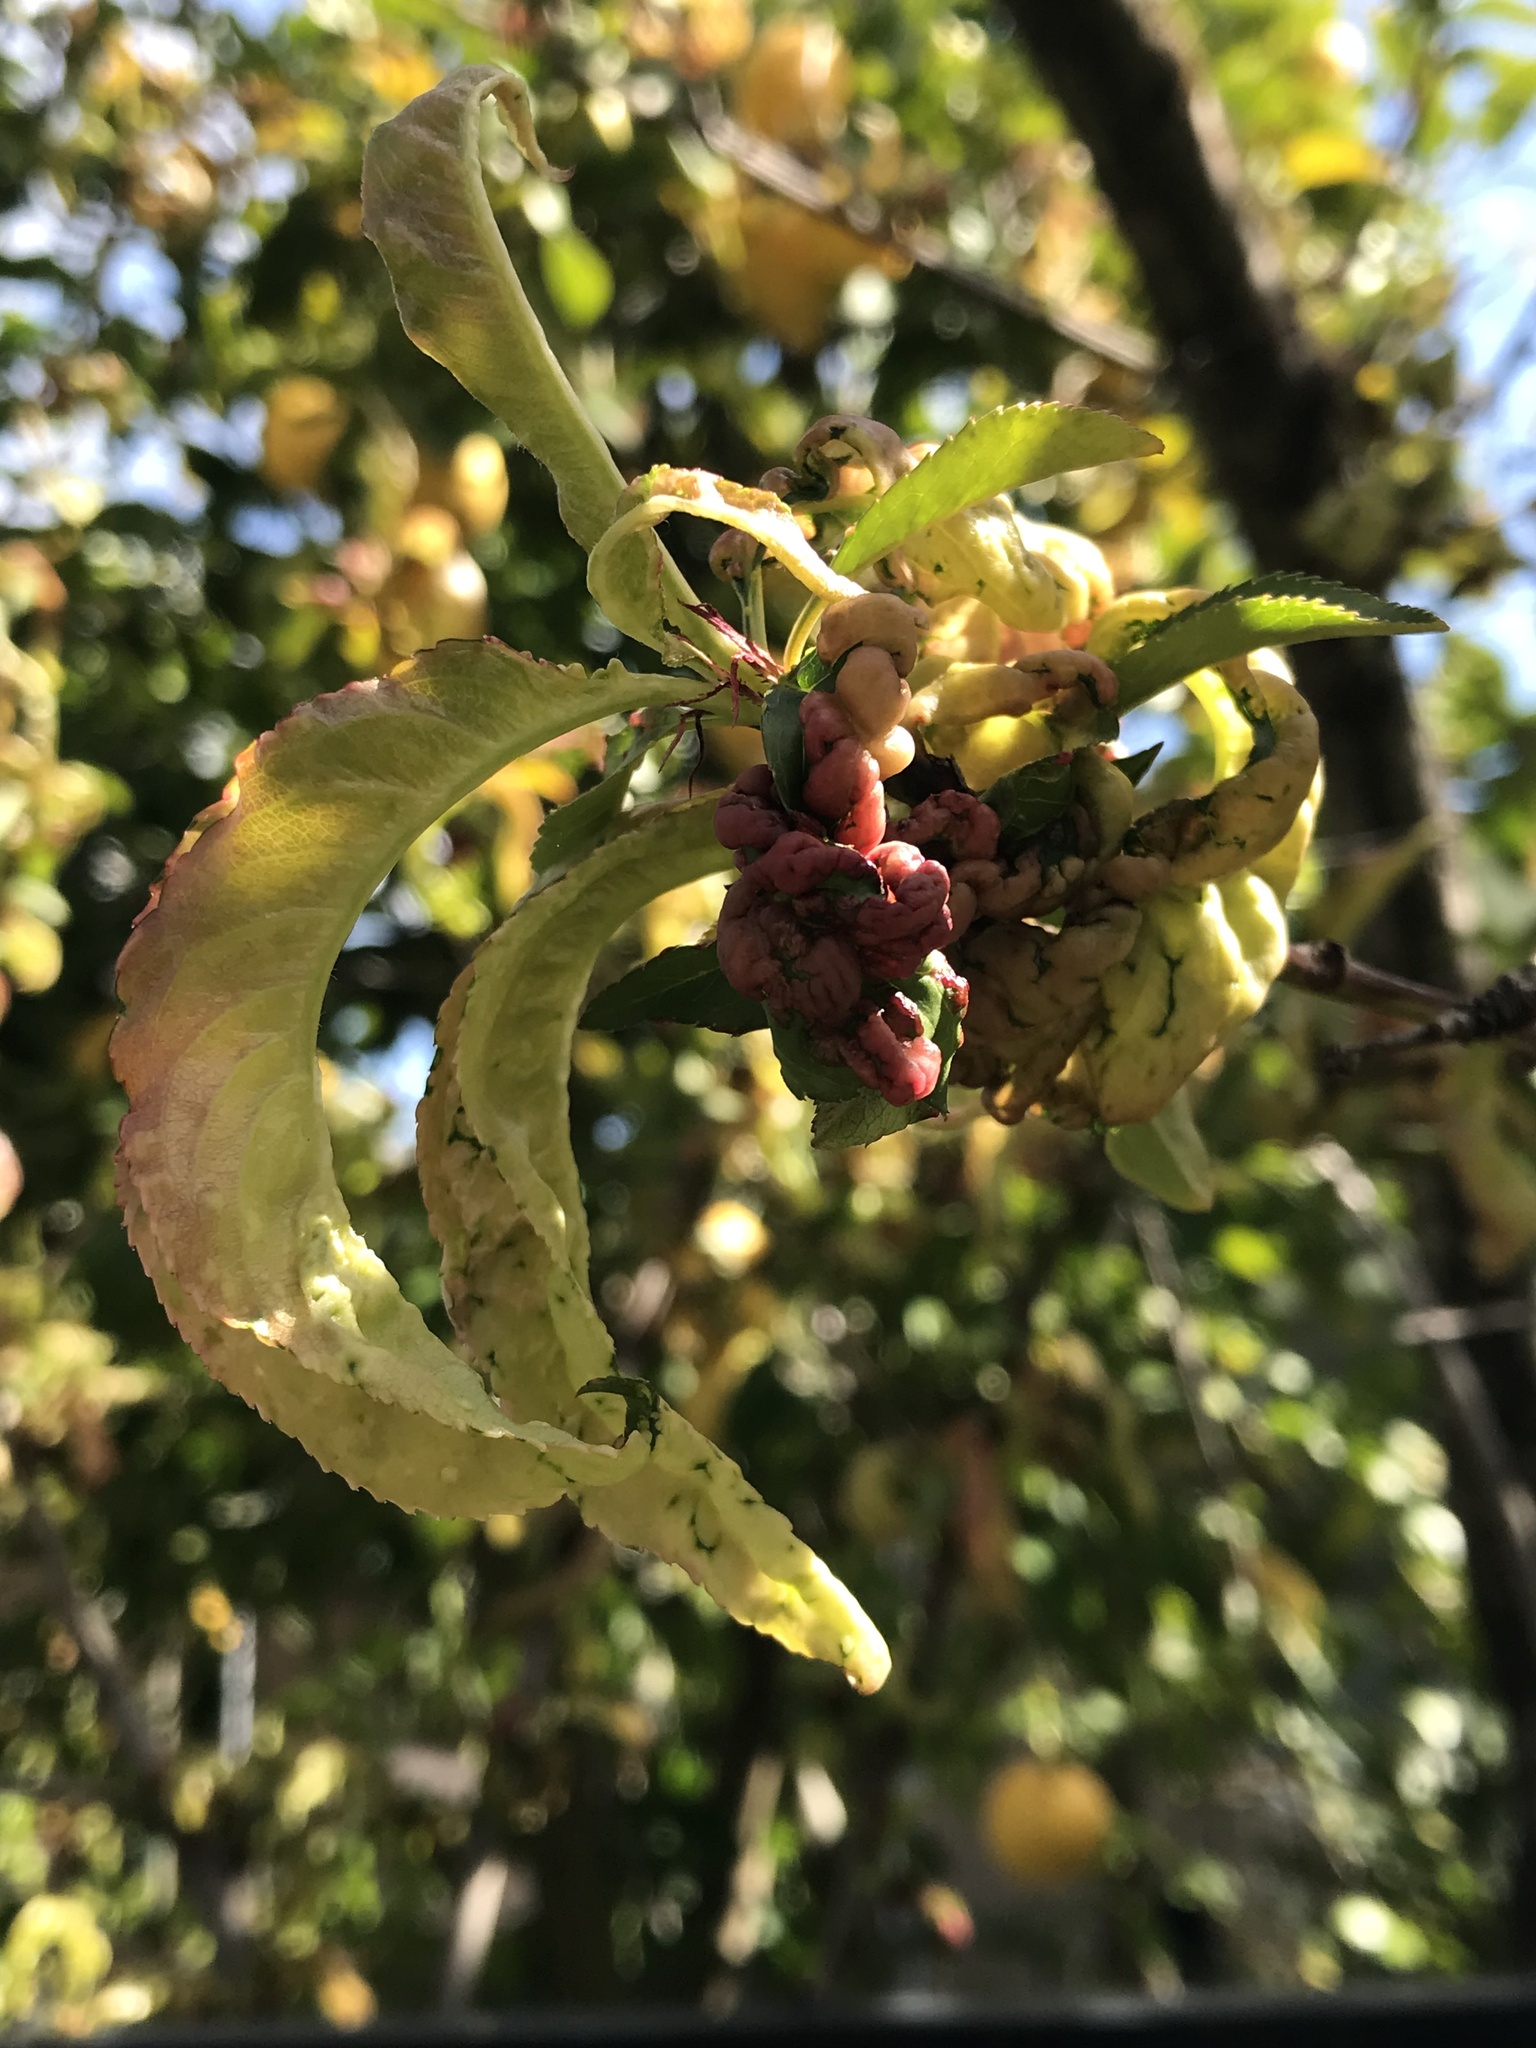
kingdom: Fungi
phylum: Ascomycota
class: Taphrinomycetes
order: Taphrinales
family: Taphrinaceae
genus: Taphrina
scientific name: Taphrina deformans
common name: Peach leaf curl
